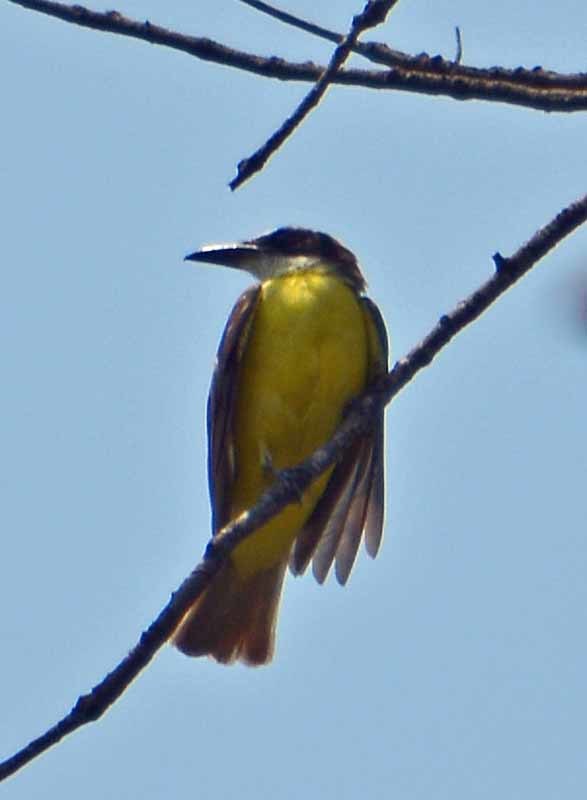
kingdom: Animalia
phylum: Chordata
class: Aves
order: Passeriformes
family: Tyrannidae
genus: Megarynchus
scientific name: Megarynchus pitangua
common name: Boat-billed flycatcher
